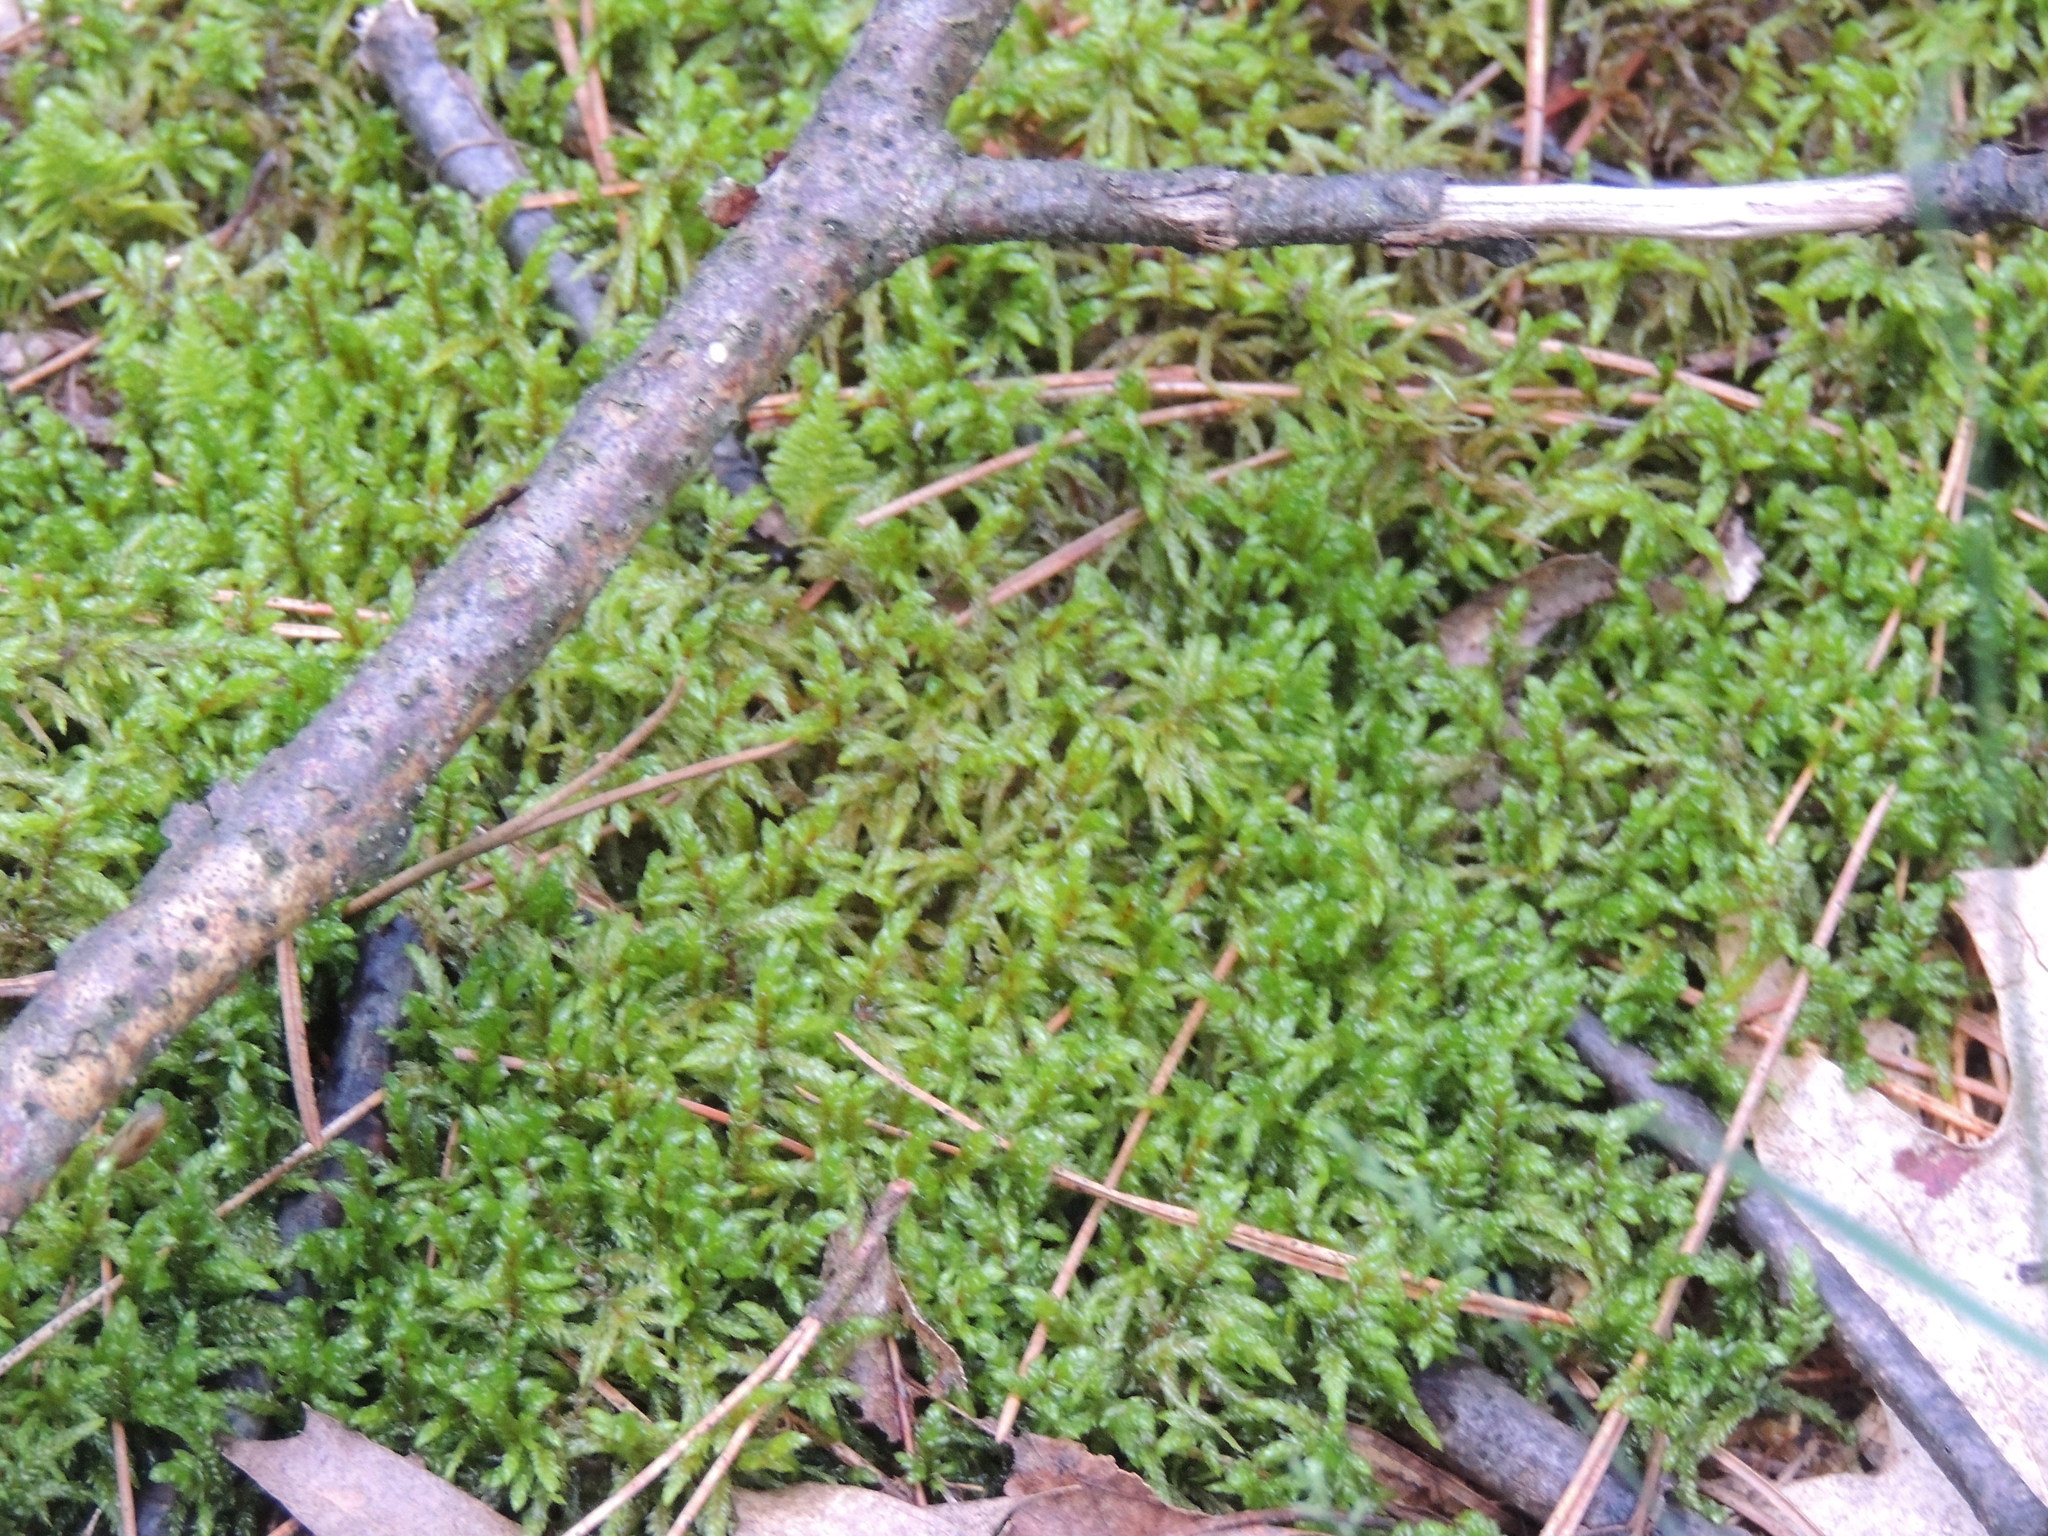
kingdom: Plantae
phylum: Bryophyta
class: Bryopsida
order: Hypnales
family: Hylocomiaceae
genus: Pleurozium
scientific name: Pleurozium schreberi
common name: Red-stemmed feather moss
